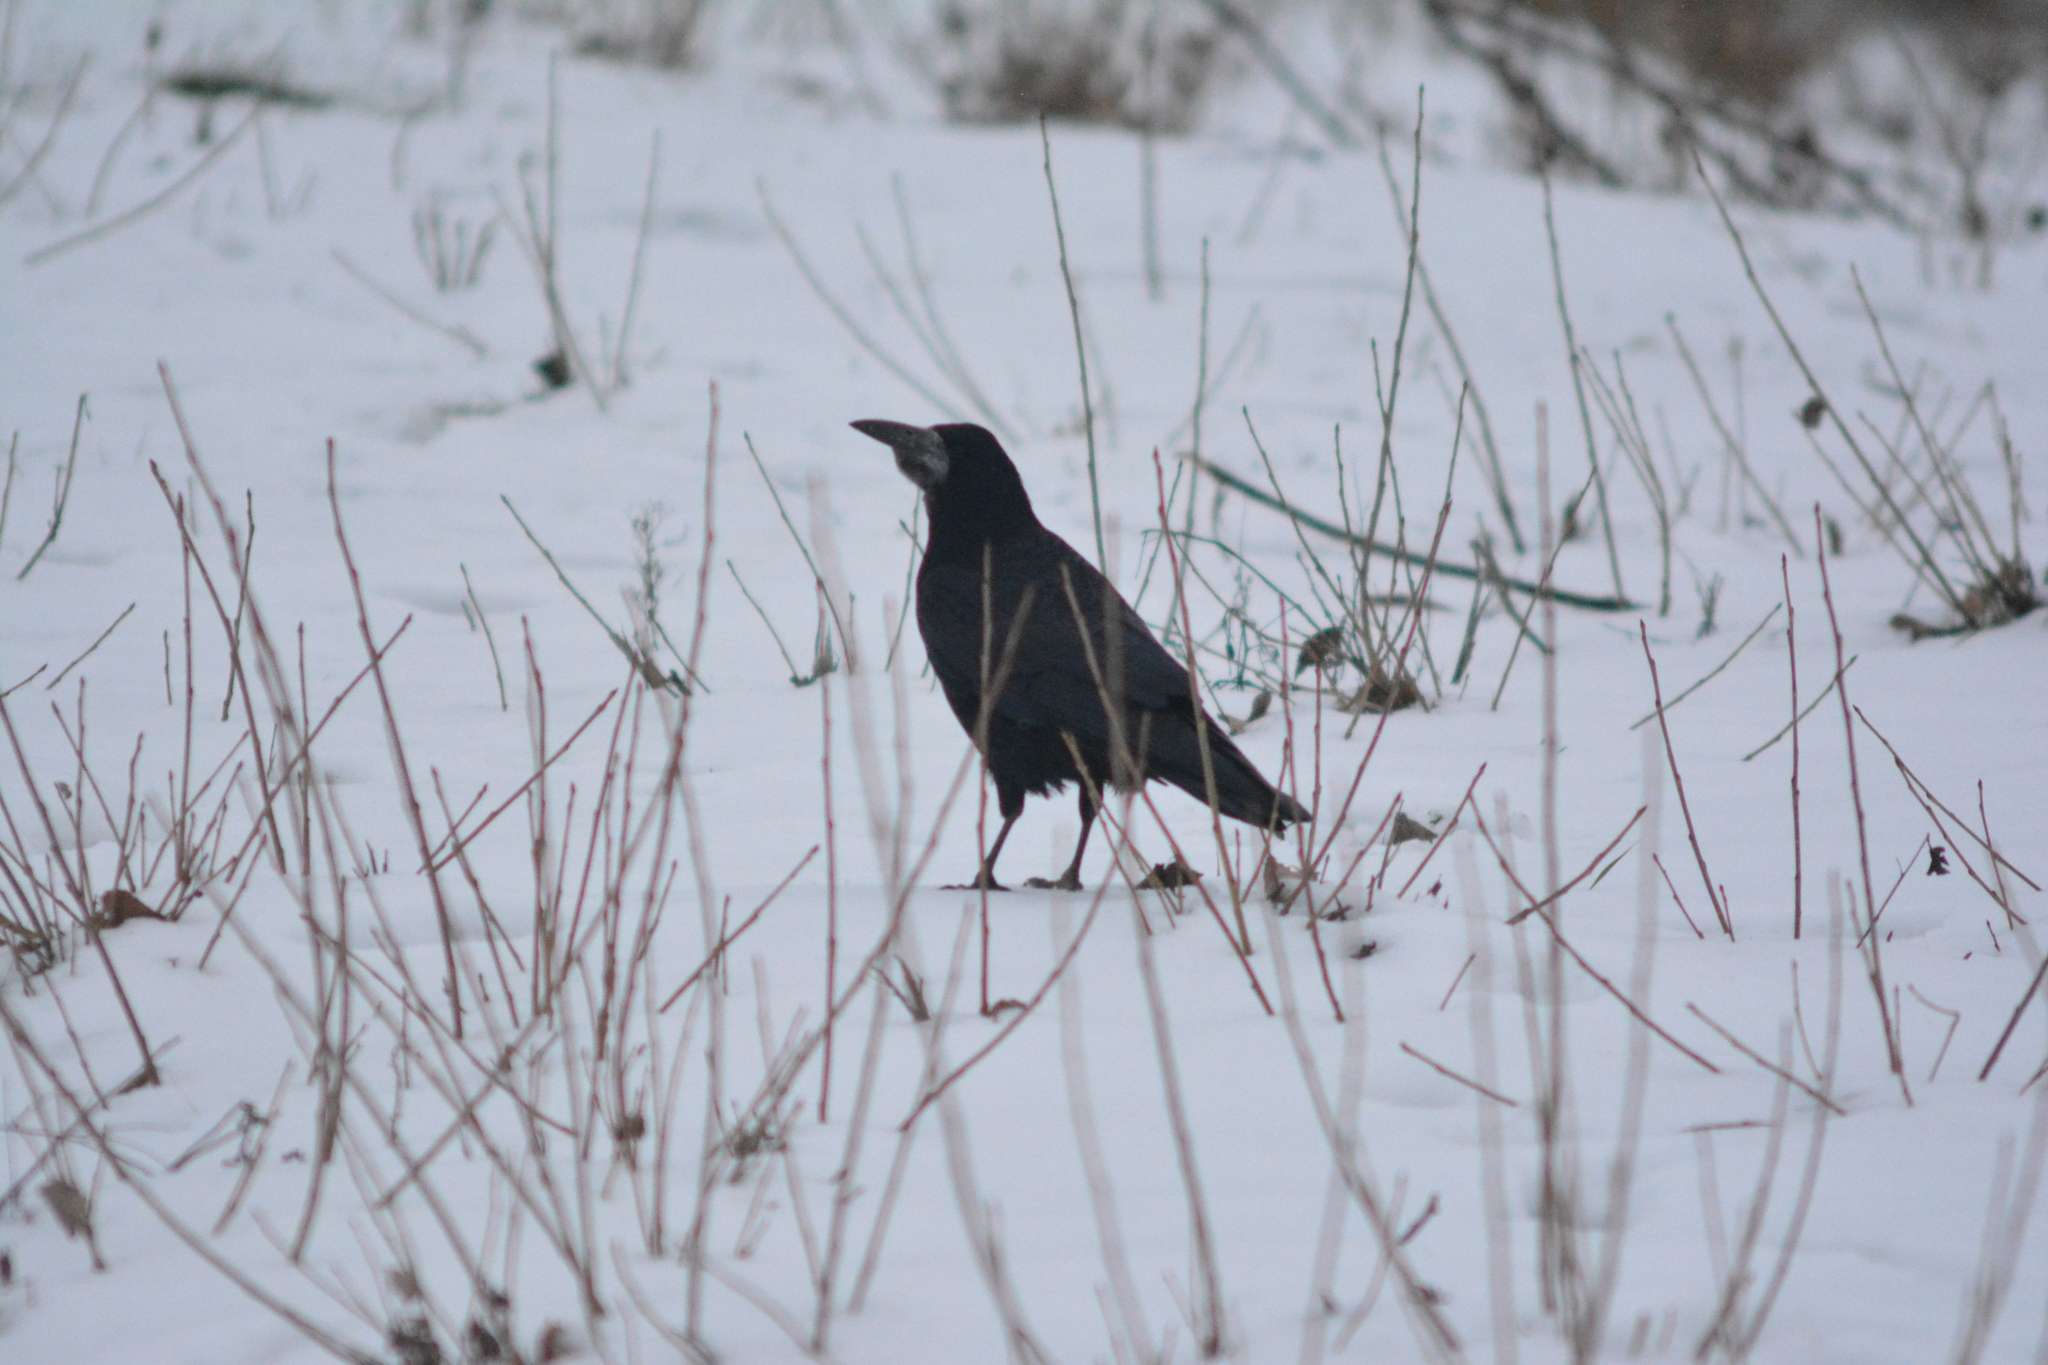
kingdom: Animalia
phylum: Chordata
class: Aves
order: Passeriformes
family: Corvidae
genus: Corvus
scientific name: Corvus frugilegus
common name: Rook
